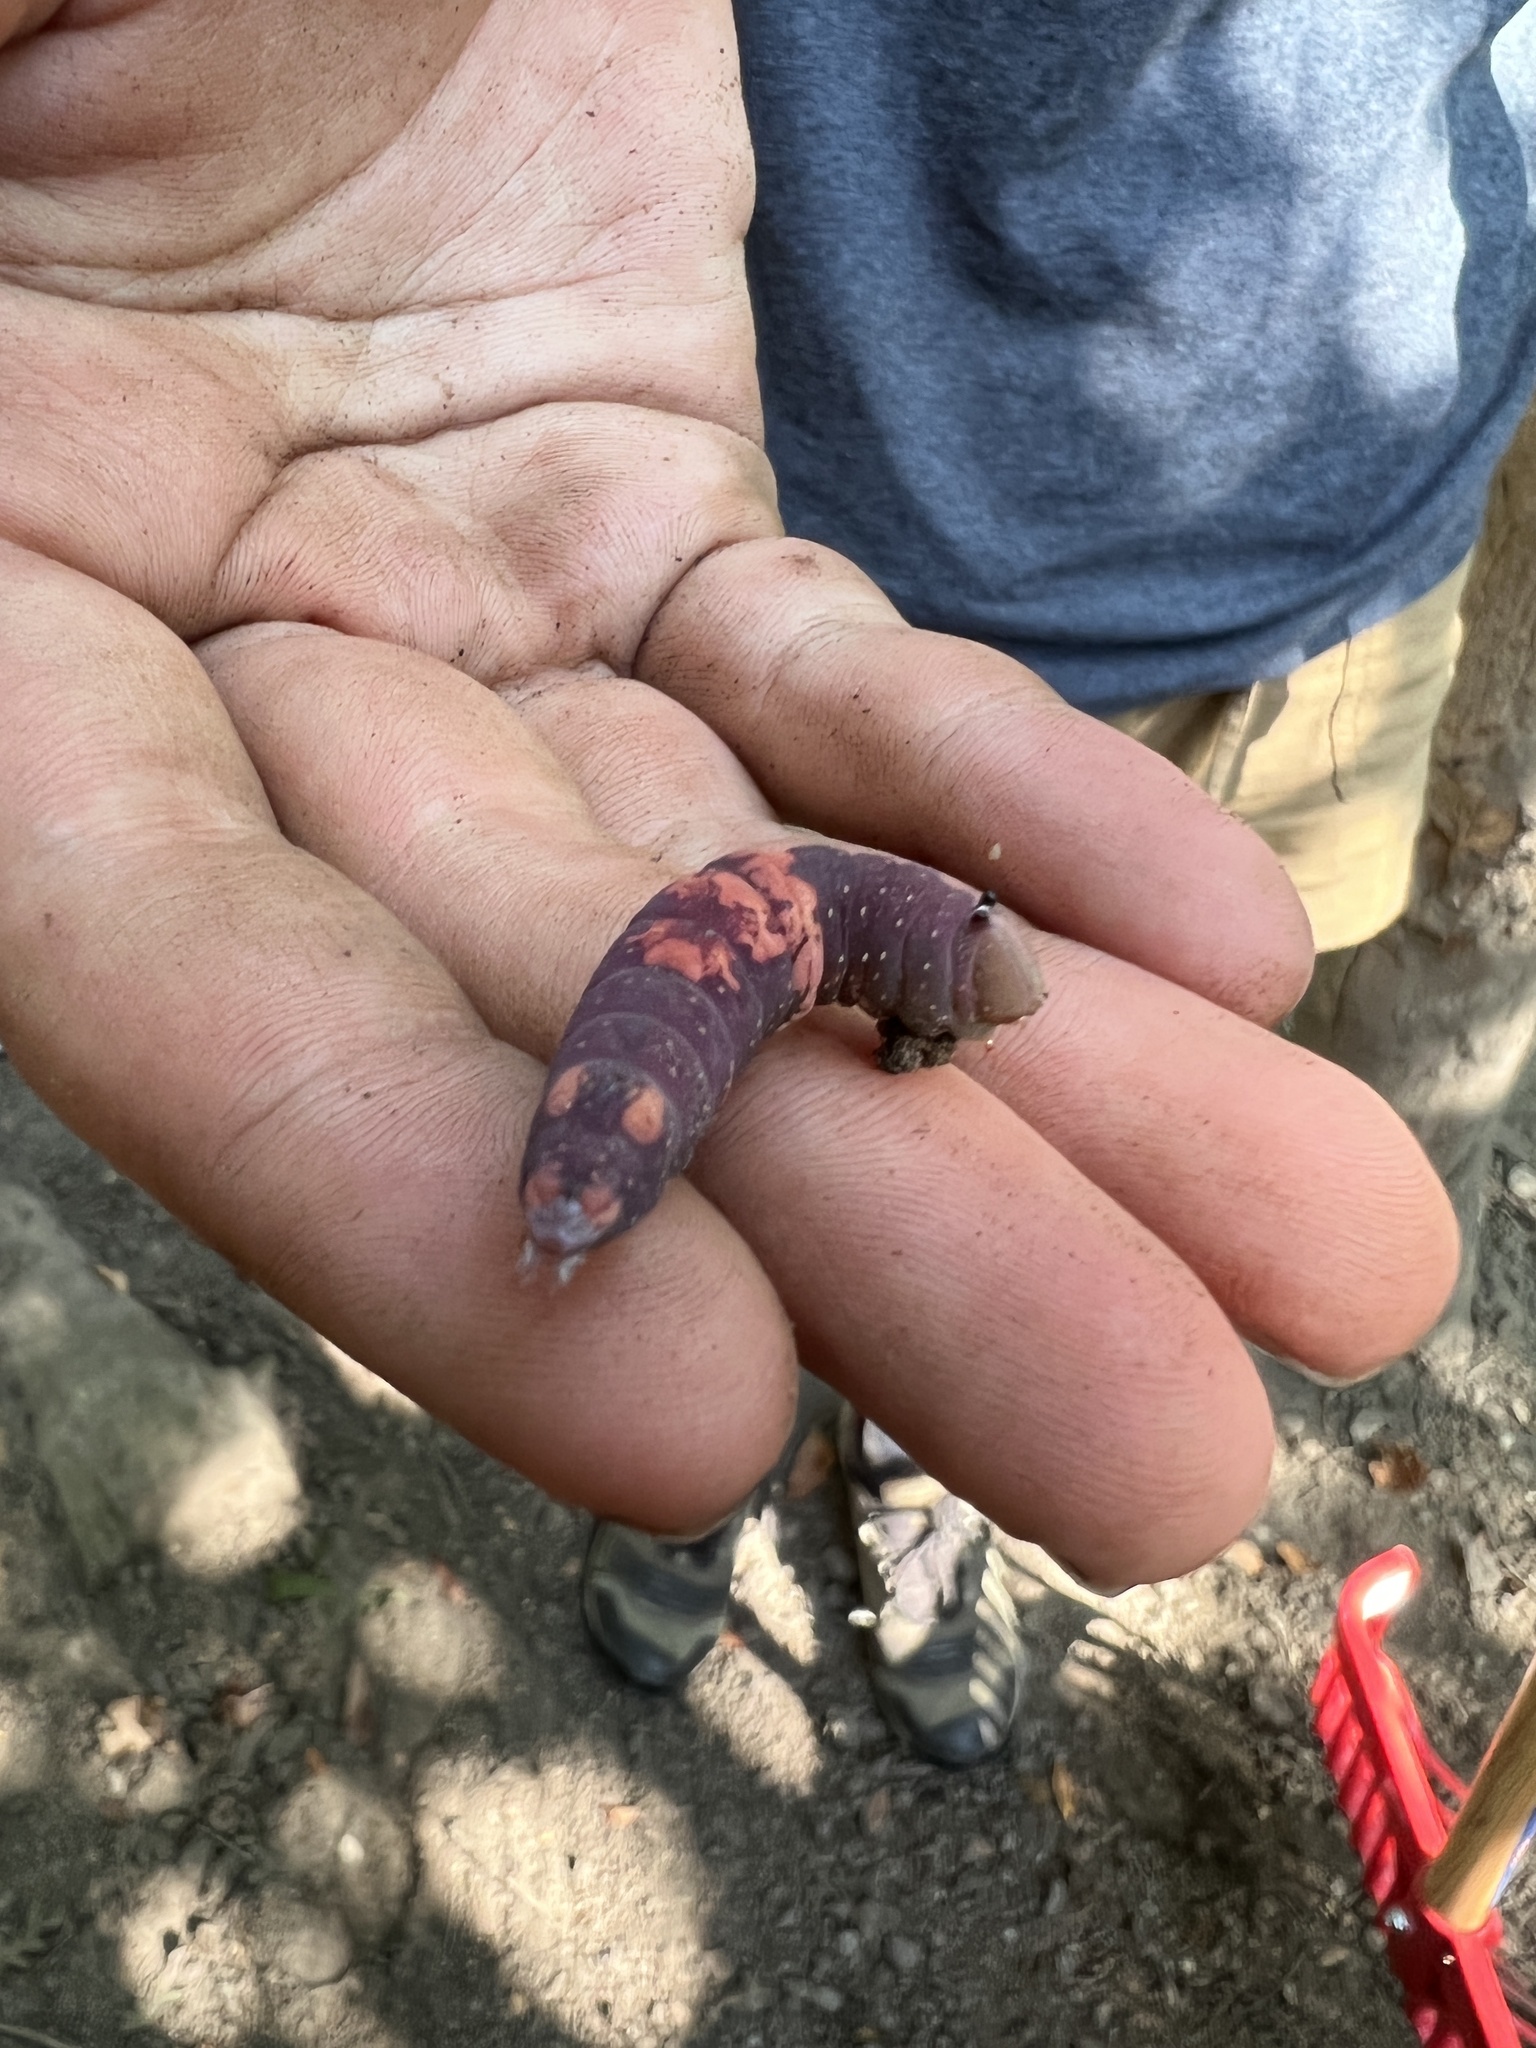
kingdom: Animalia
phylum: Arthropoda
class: Insecta
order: Lepidoptera
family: Notodontidae
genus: Heterocampa
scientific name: Heterocampa
